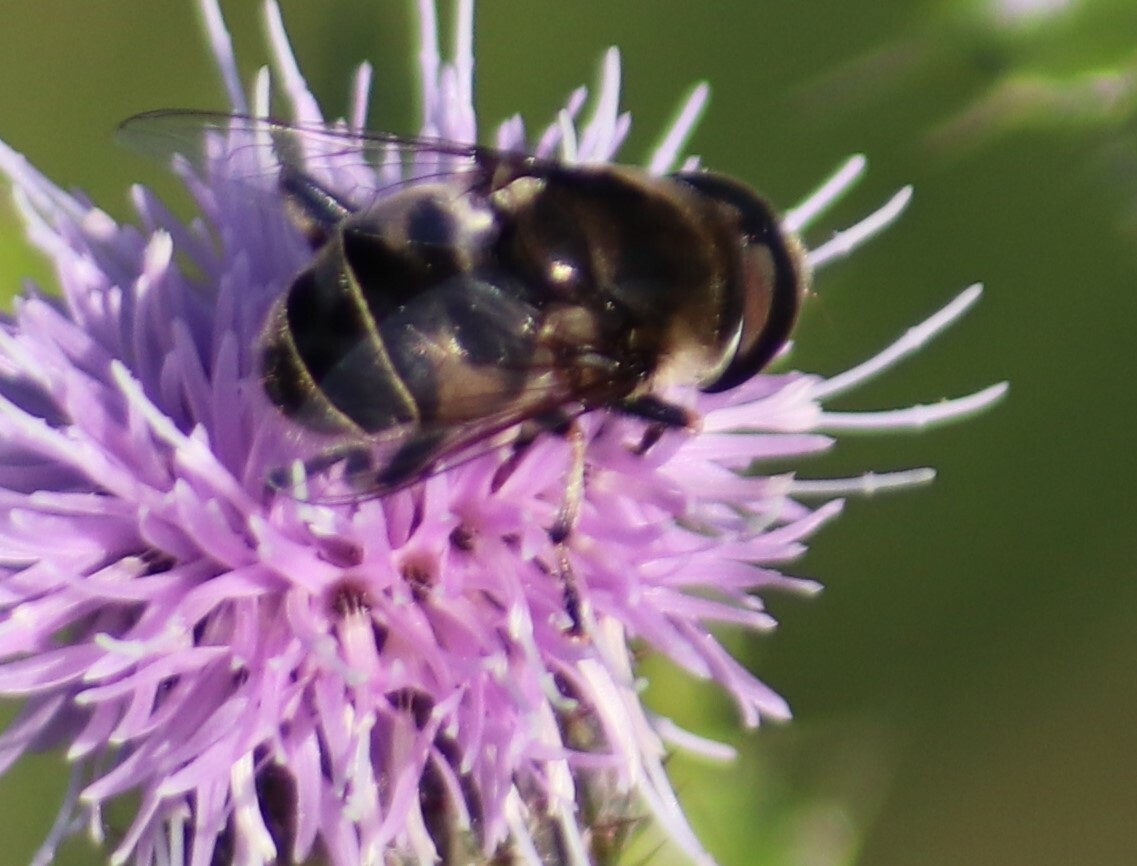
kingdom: Animalia
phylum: Arthropoda
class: Insecta
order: Diptera
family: Syrphidae
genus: Eristalis
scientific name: Eristalis dimidiata
